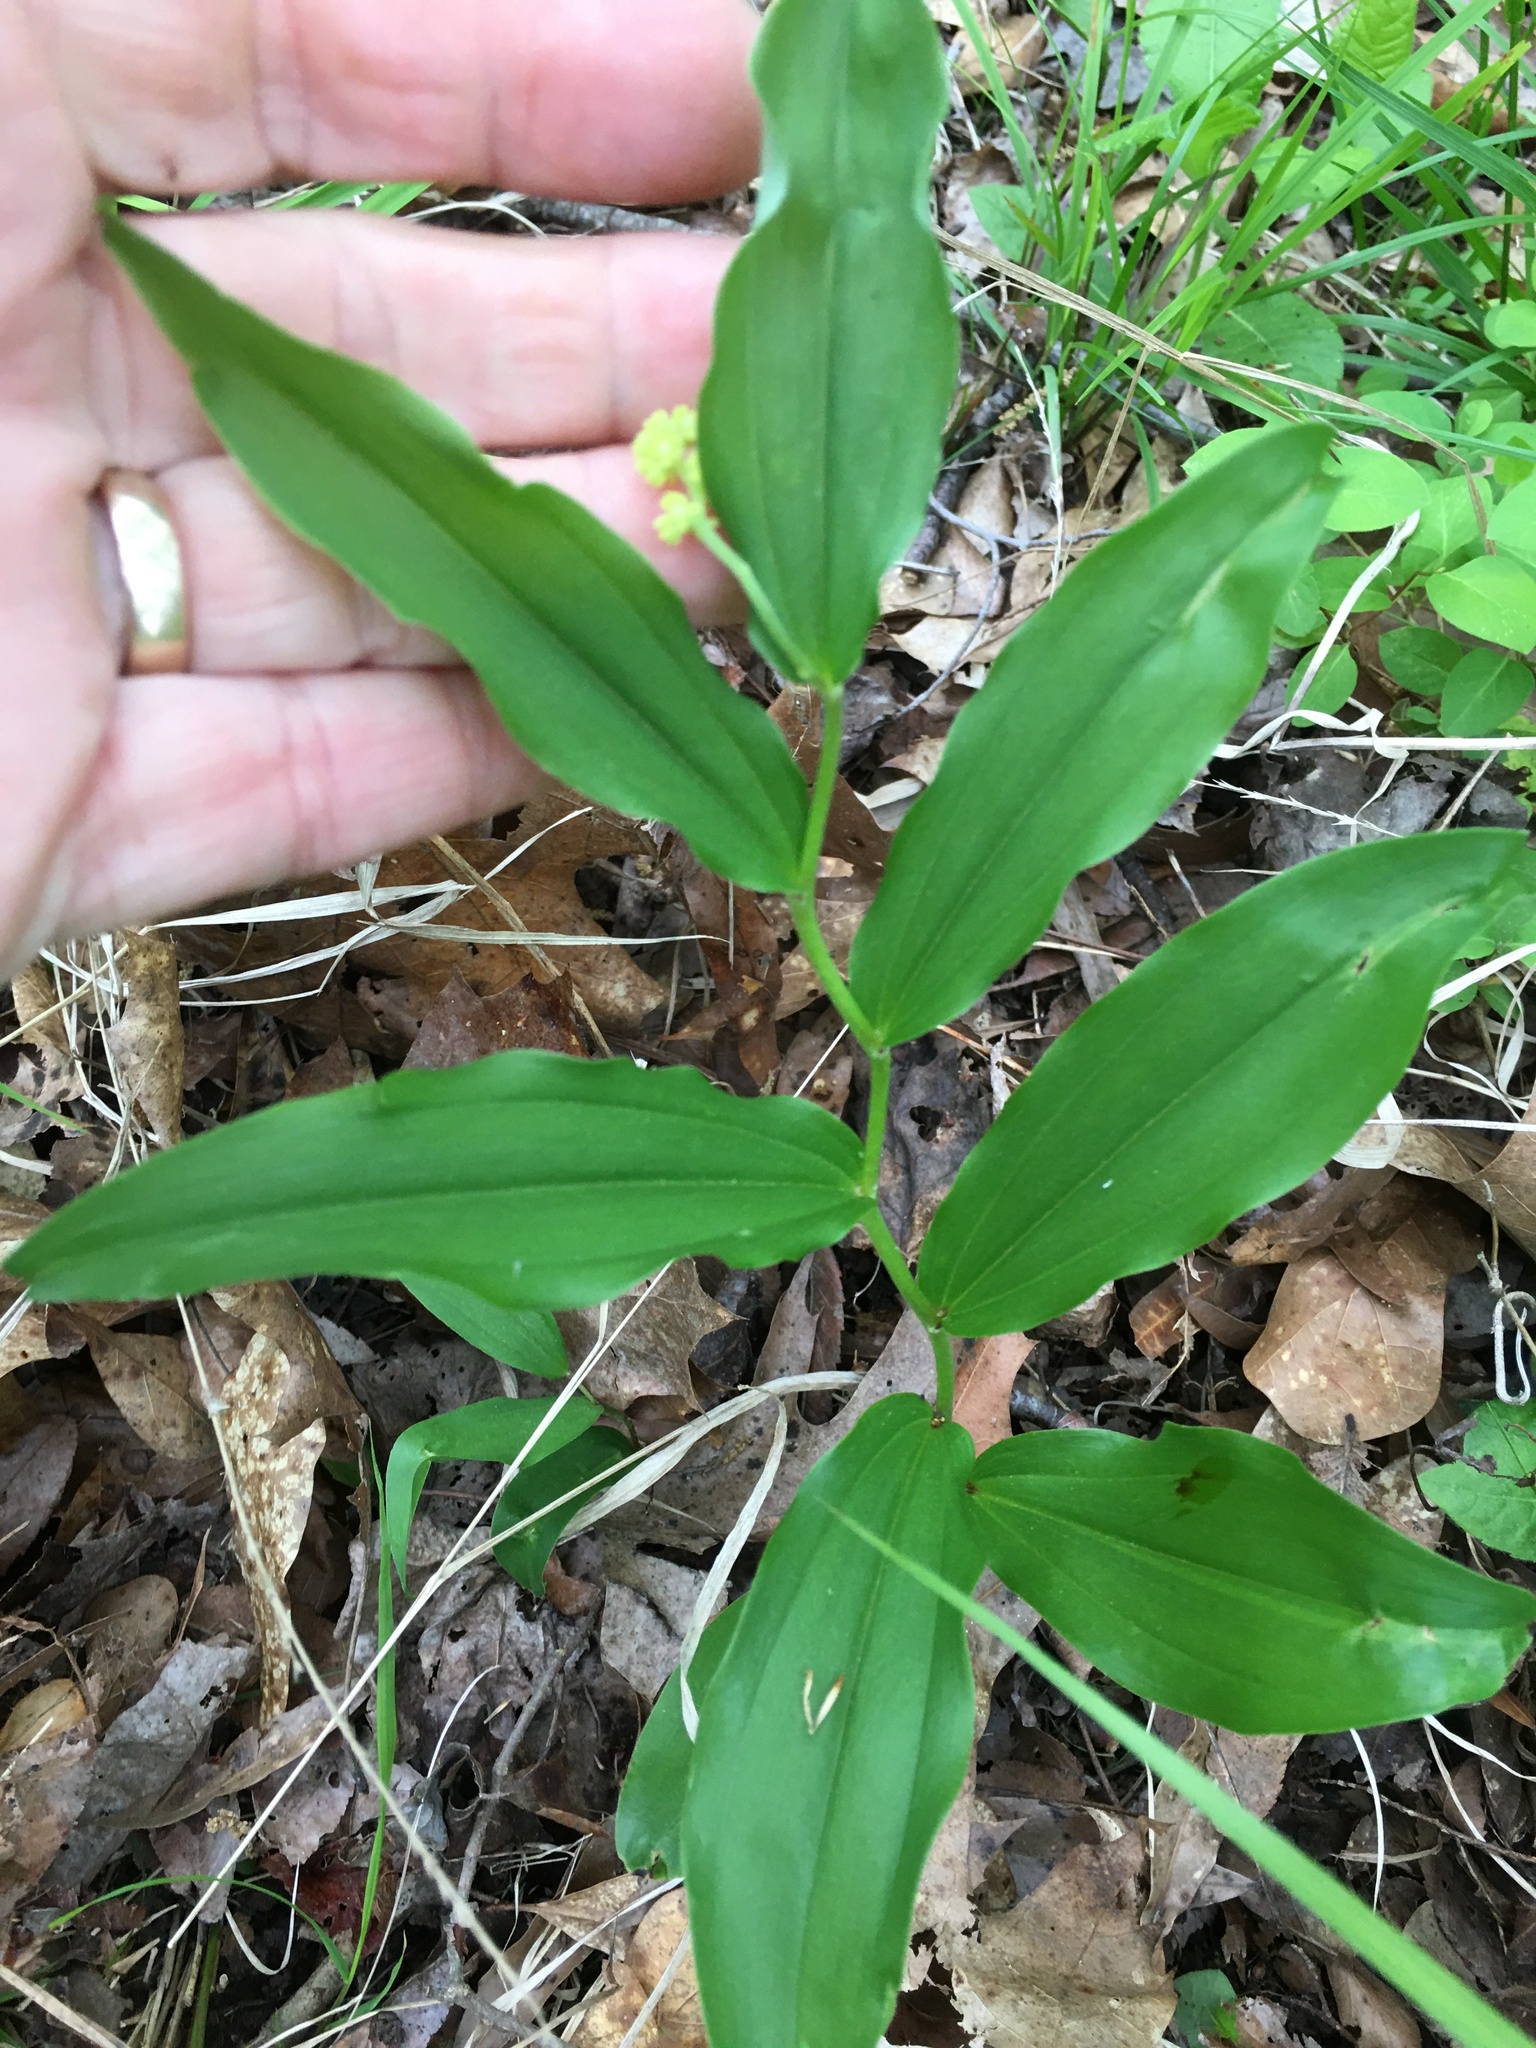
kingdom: Plantae
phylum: Tracheophyta
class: Liliopsida
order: Asparagales
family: Asparagaceae
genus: Maianthemum
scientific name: Maianthemum racemosum
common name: False spikenard
